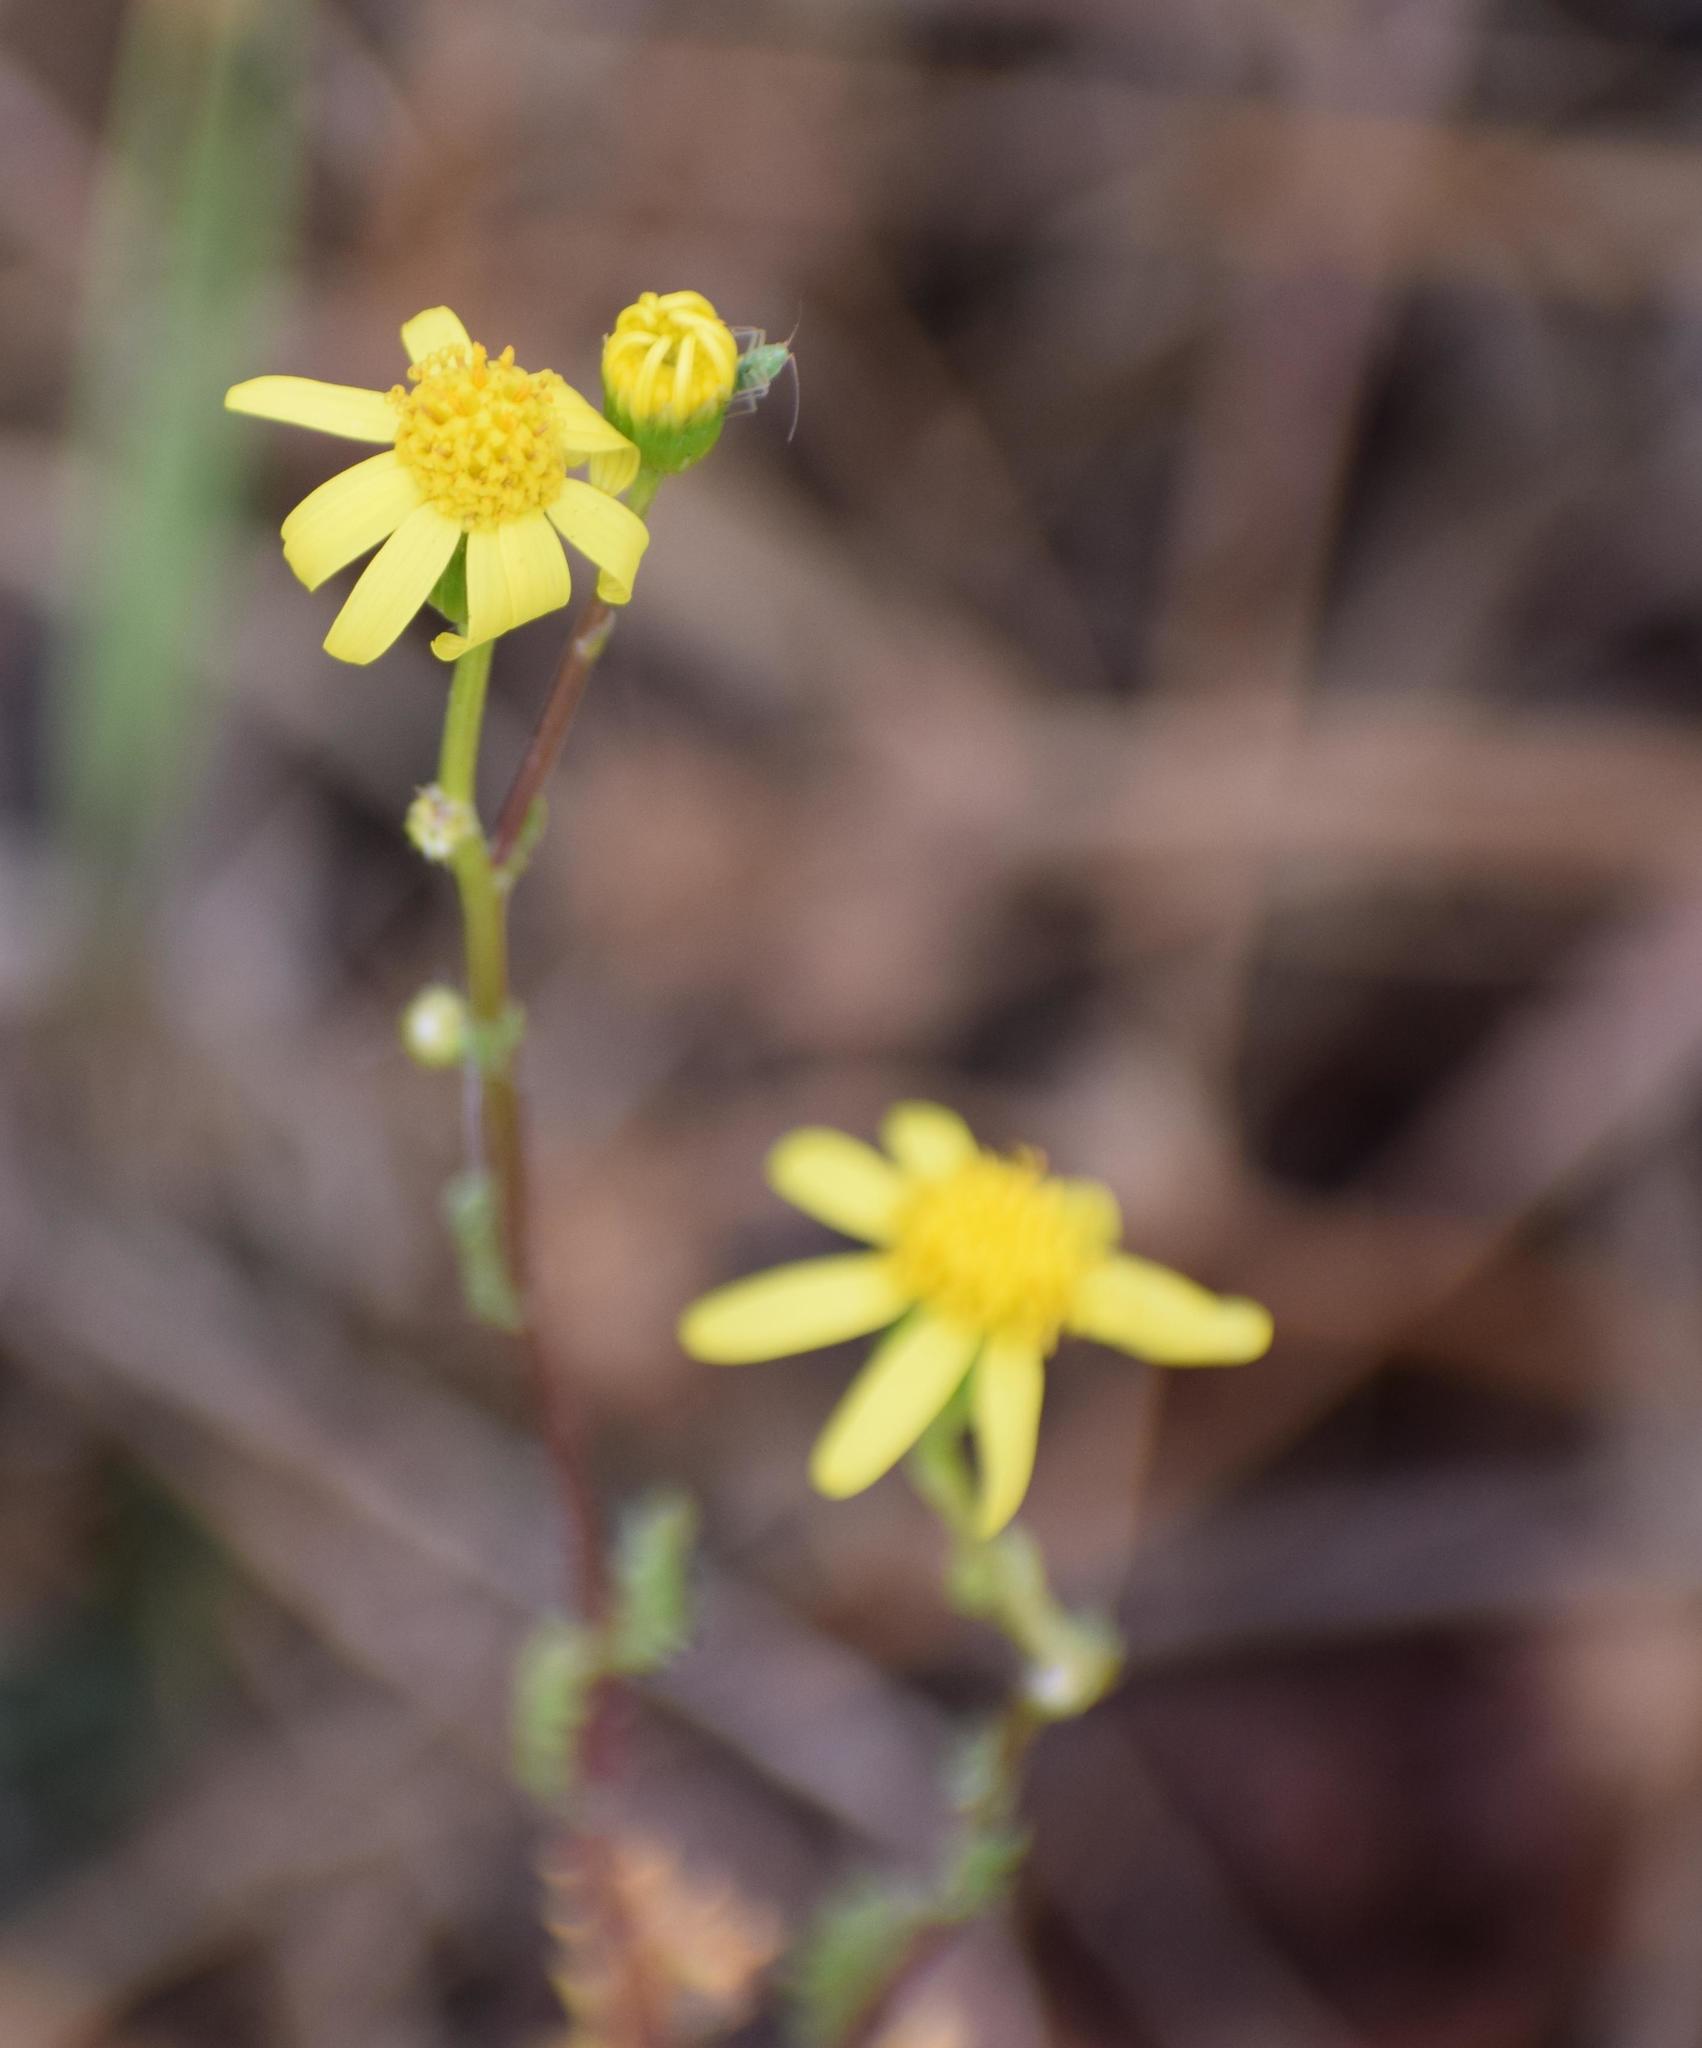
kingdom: Plantae
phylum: Tracheophyta
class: Magnoliopsida
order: Asterales
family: Asteraceae
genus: Senecio
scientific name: Senecio vernalis
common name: Eastern groundsel
